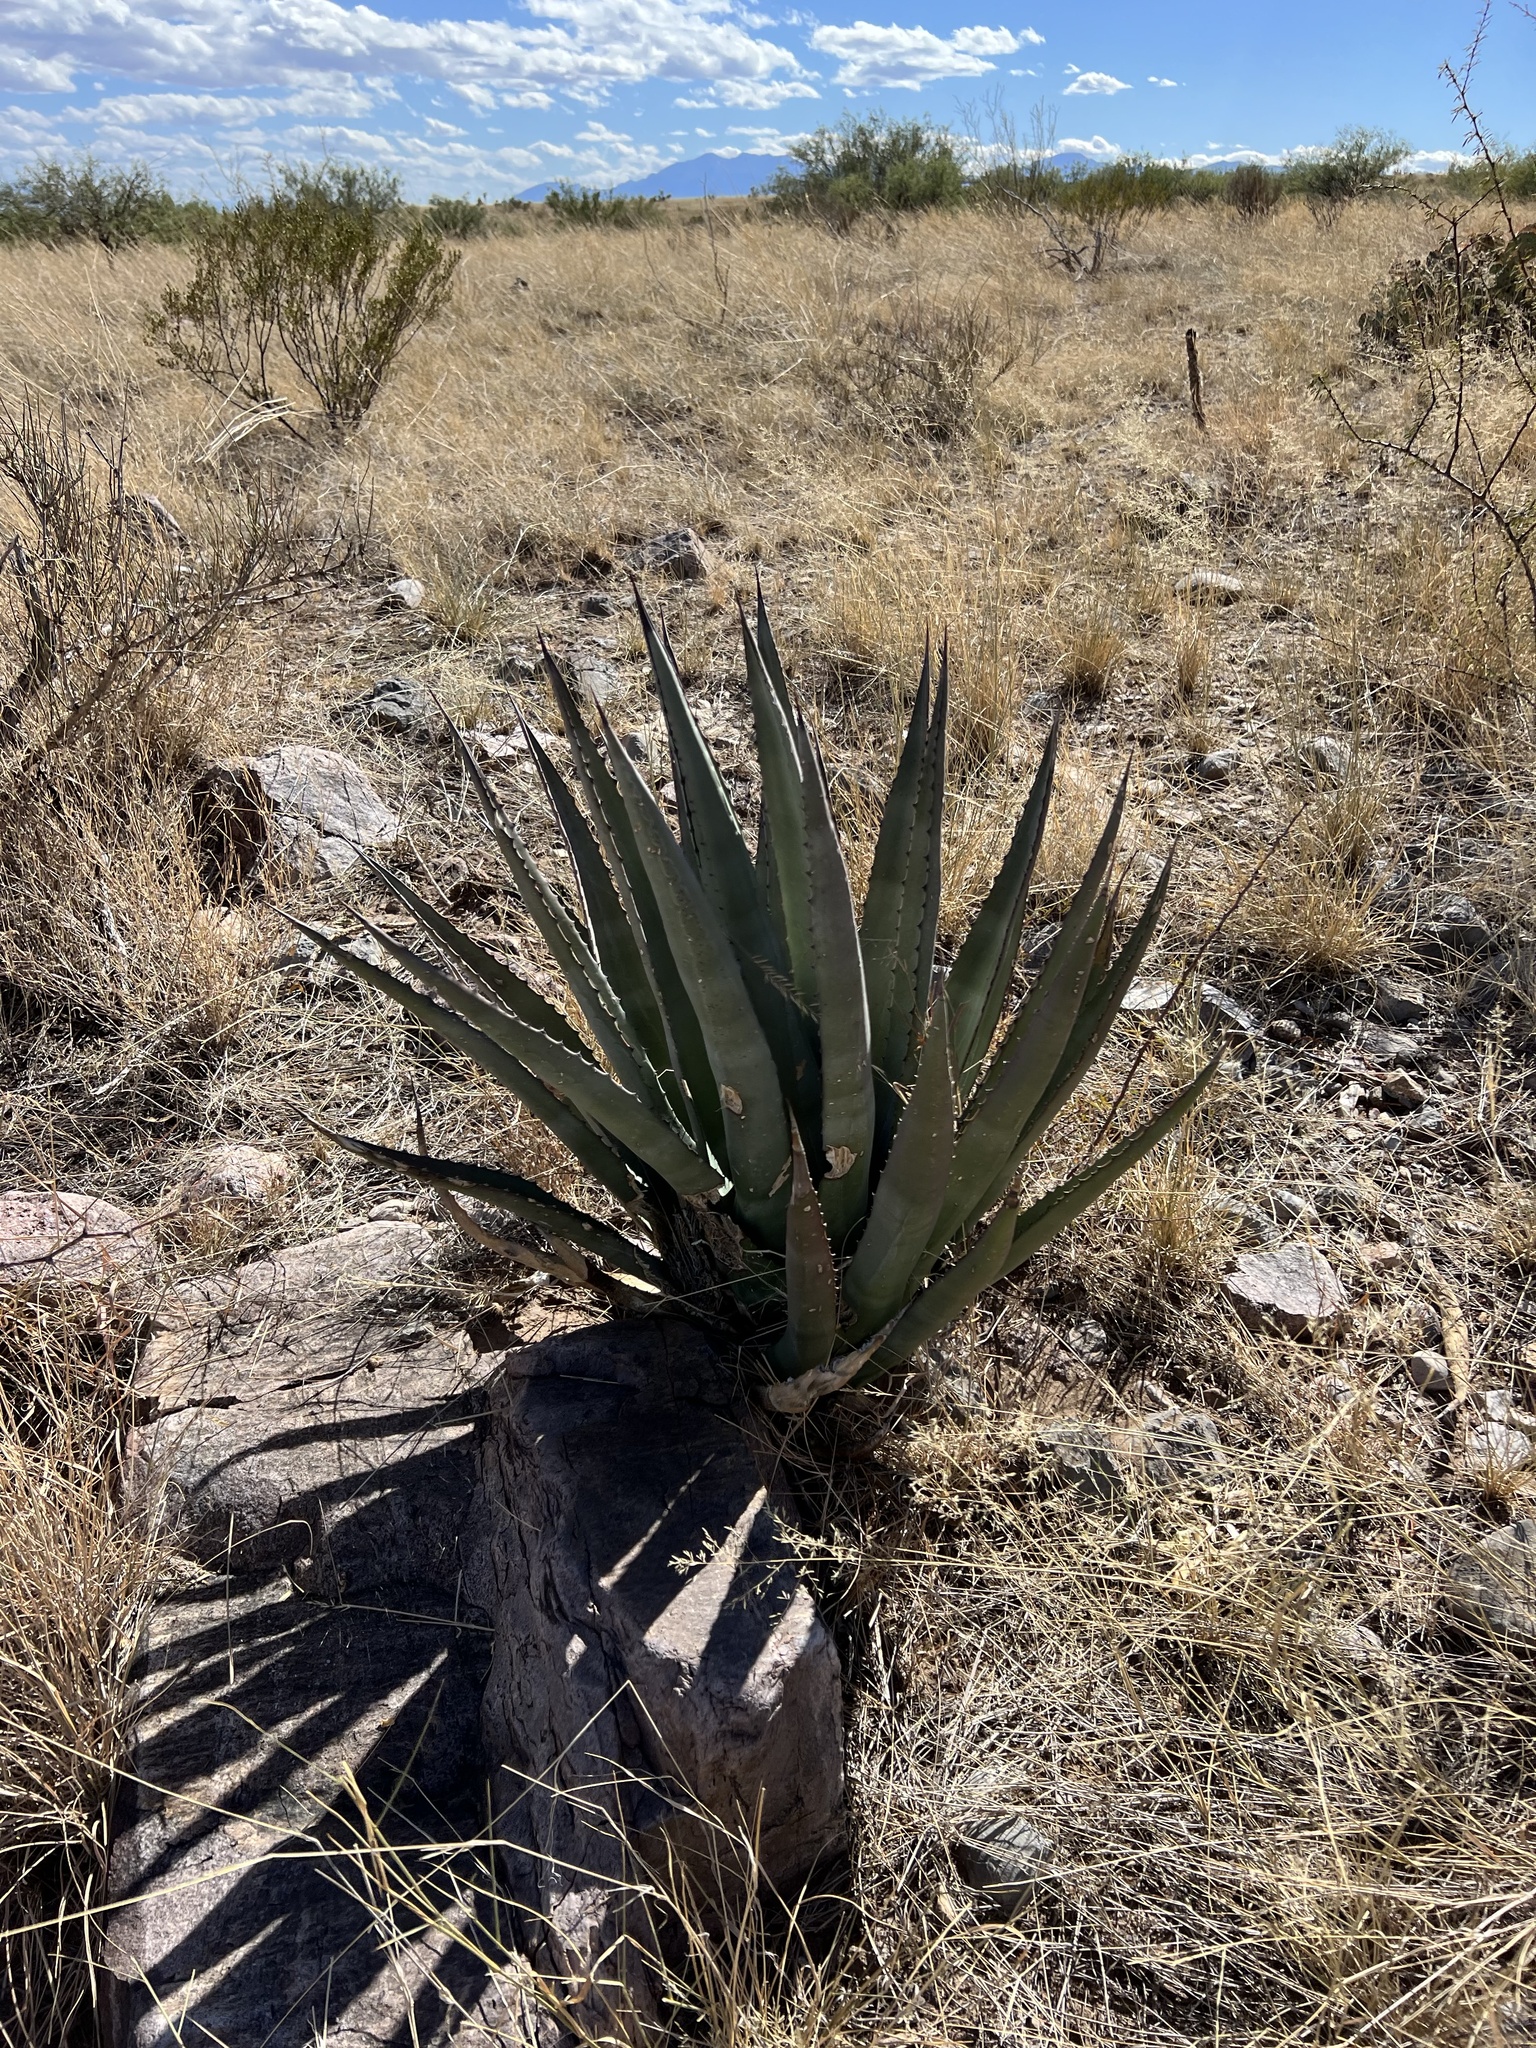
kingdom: Plantae
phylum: Tracheophyta
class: Liliopsida
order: Asparagales
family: Asparagaceae
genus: Agave
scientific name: Agave palmeri
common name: Palmer agave
